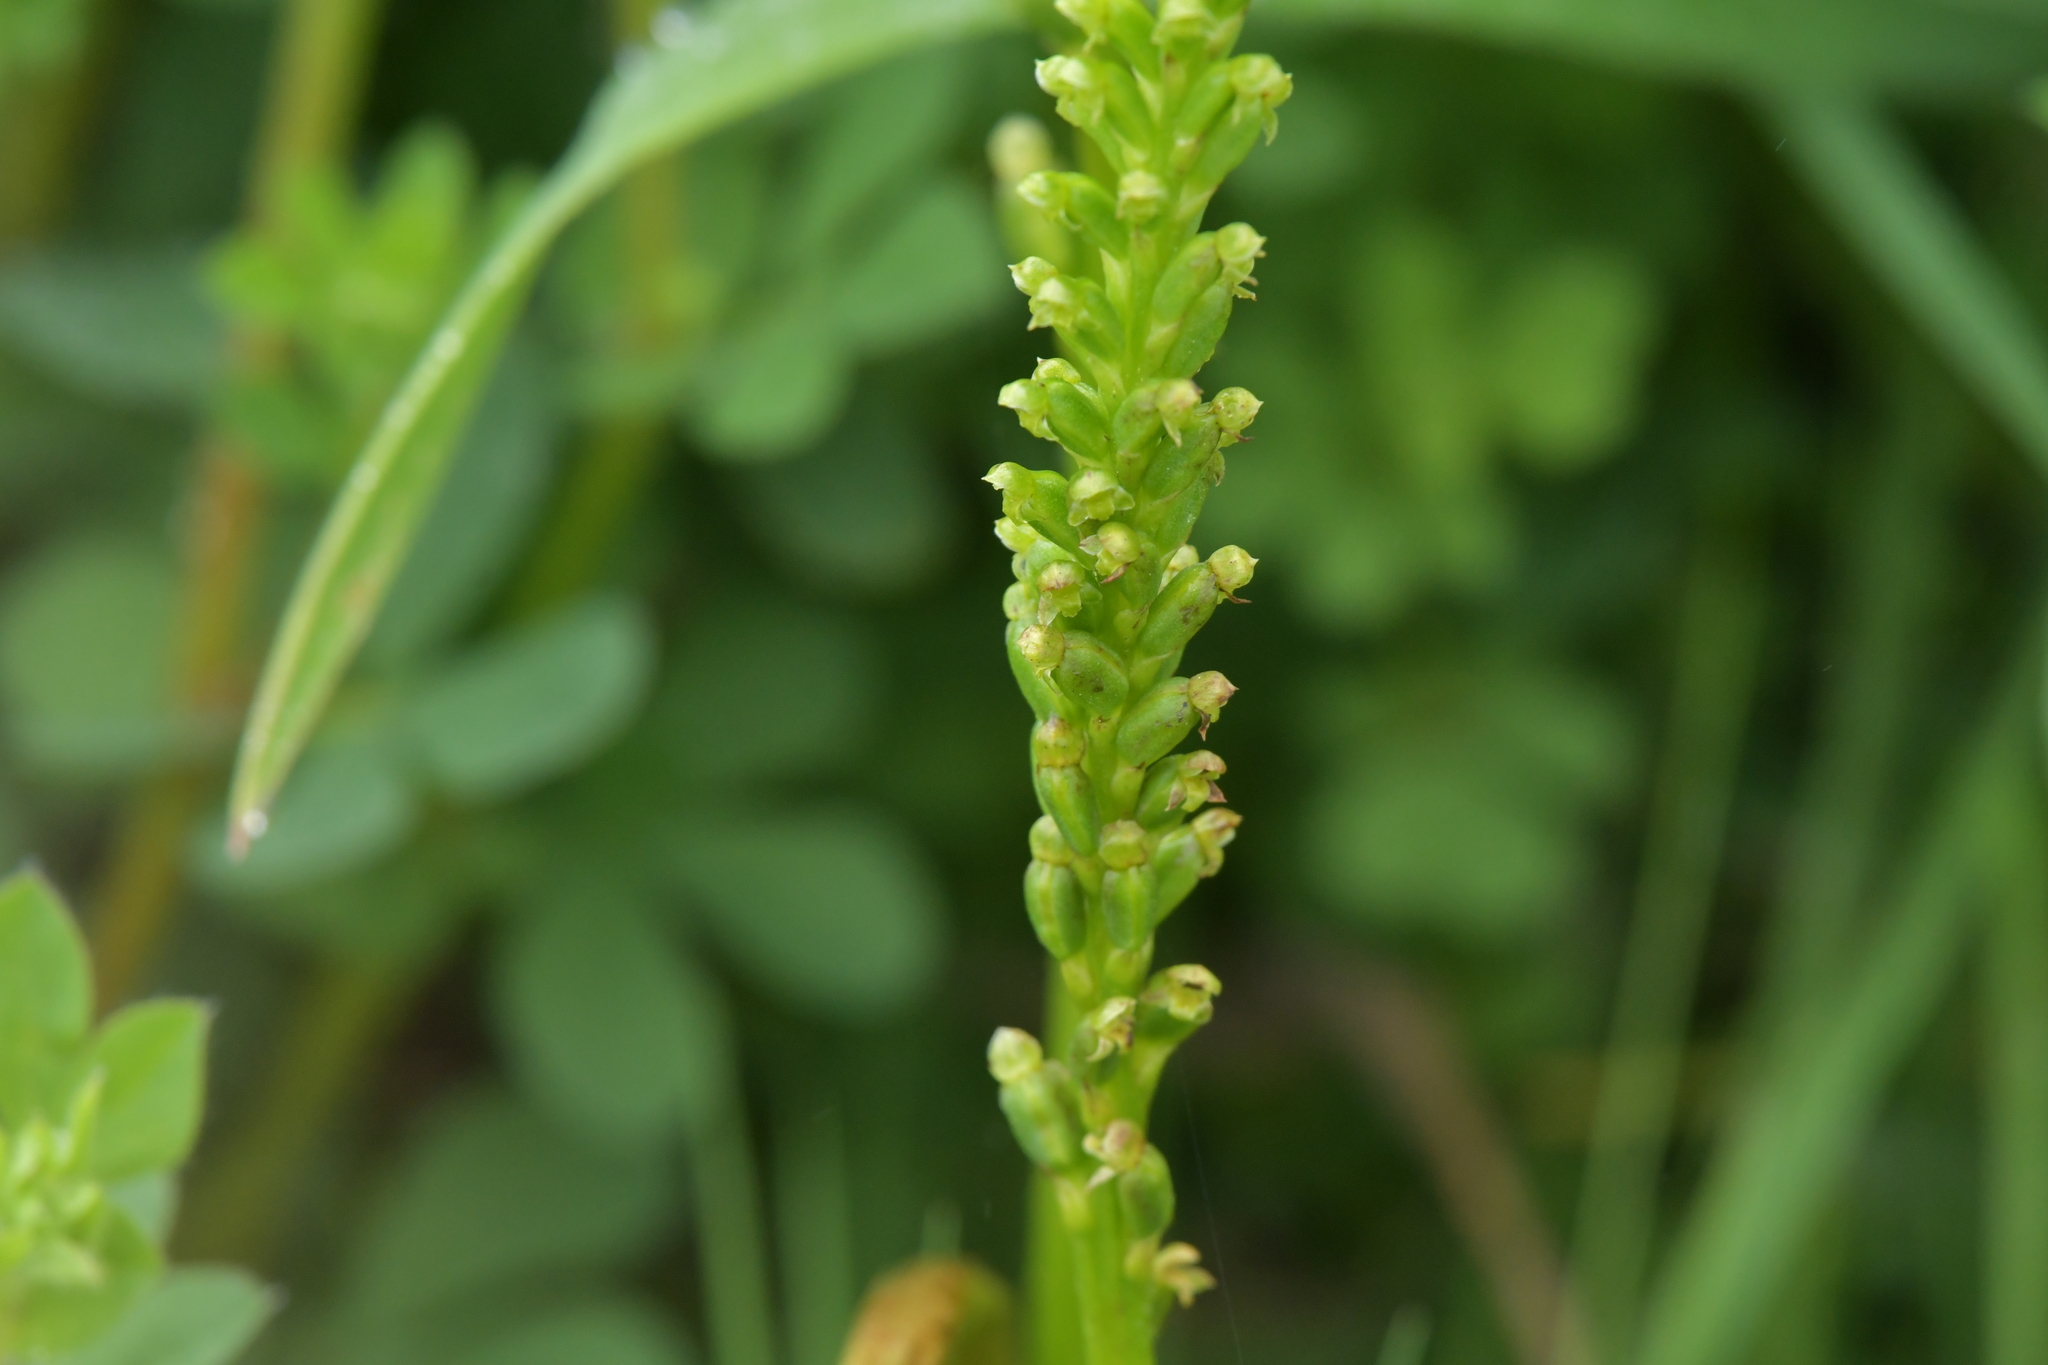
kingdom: Plantae
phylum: Tracheophyta
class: Liliopsida
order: Asparagales
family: Orchidaceae
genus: Microtis
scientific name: Microtis unifolia
